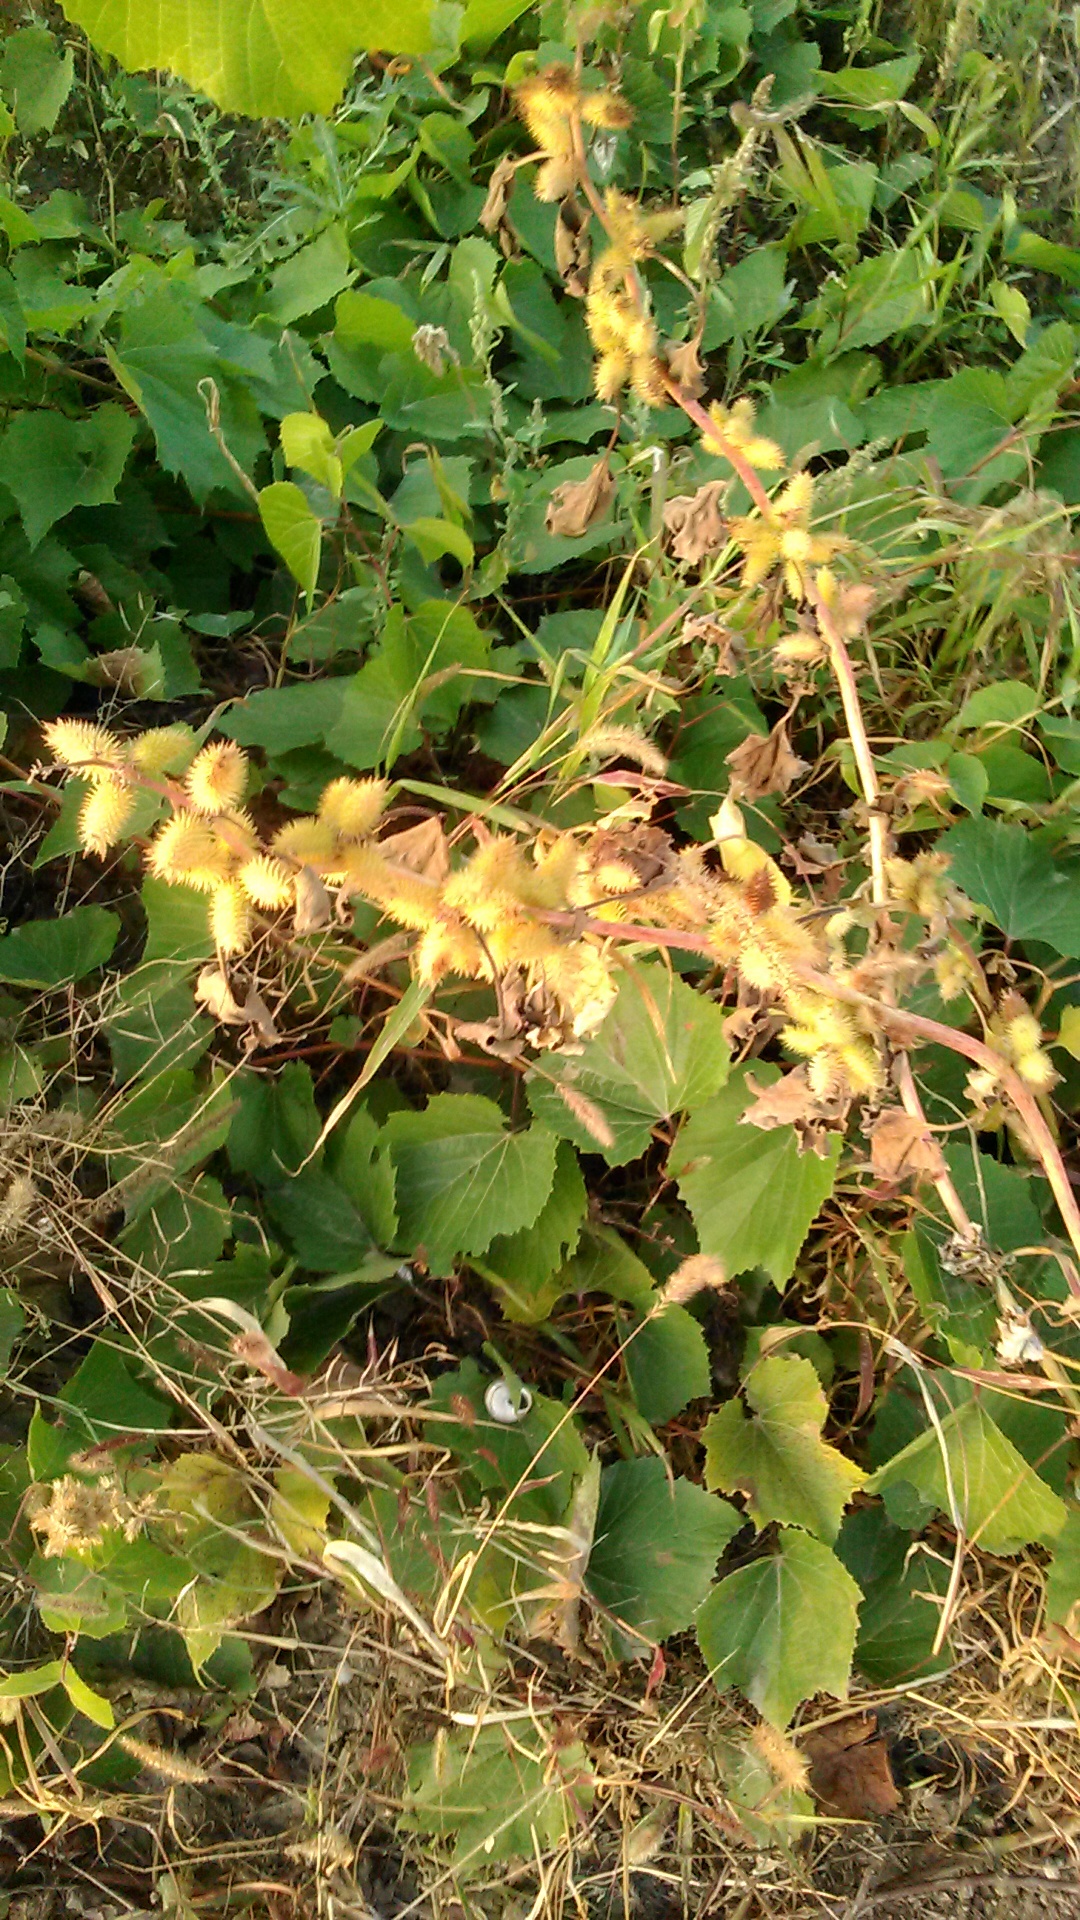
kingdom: Plantae
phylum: Tracheophyta
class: Magnoliopsida
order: Asterales
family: Asteraceae
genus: Xanthium
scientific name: Xanthium orientale
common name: Californian burr
